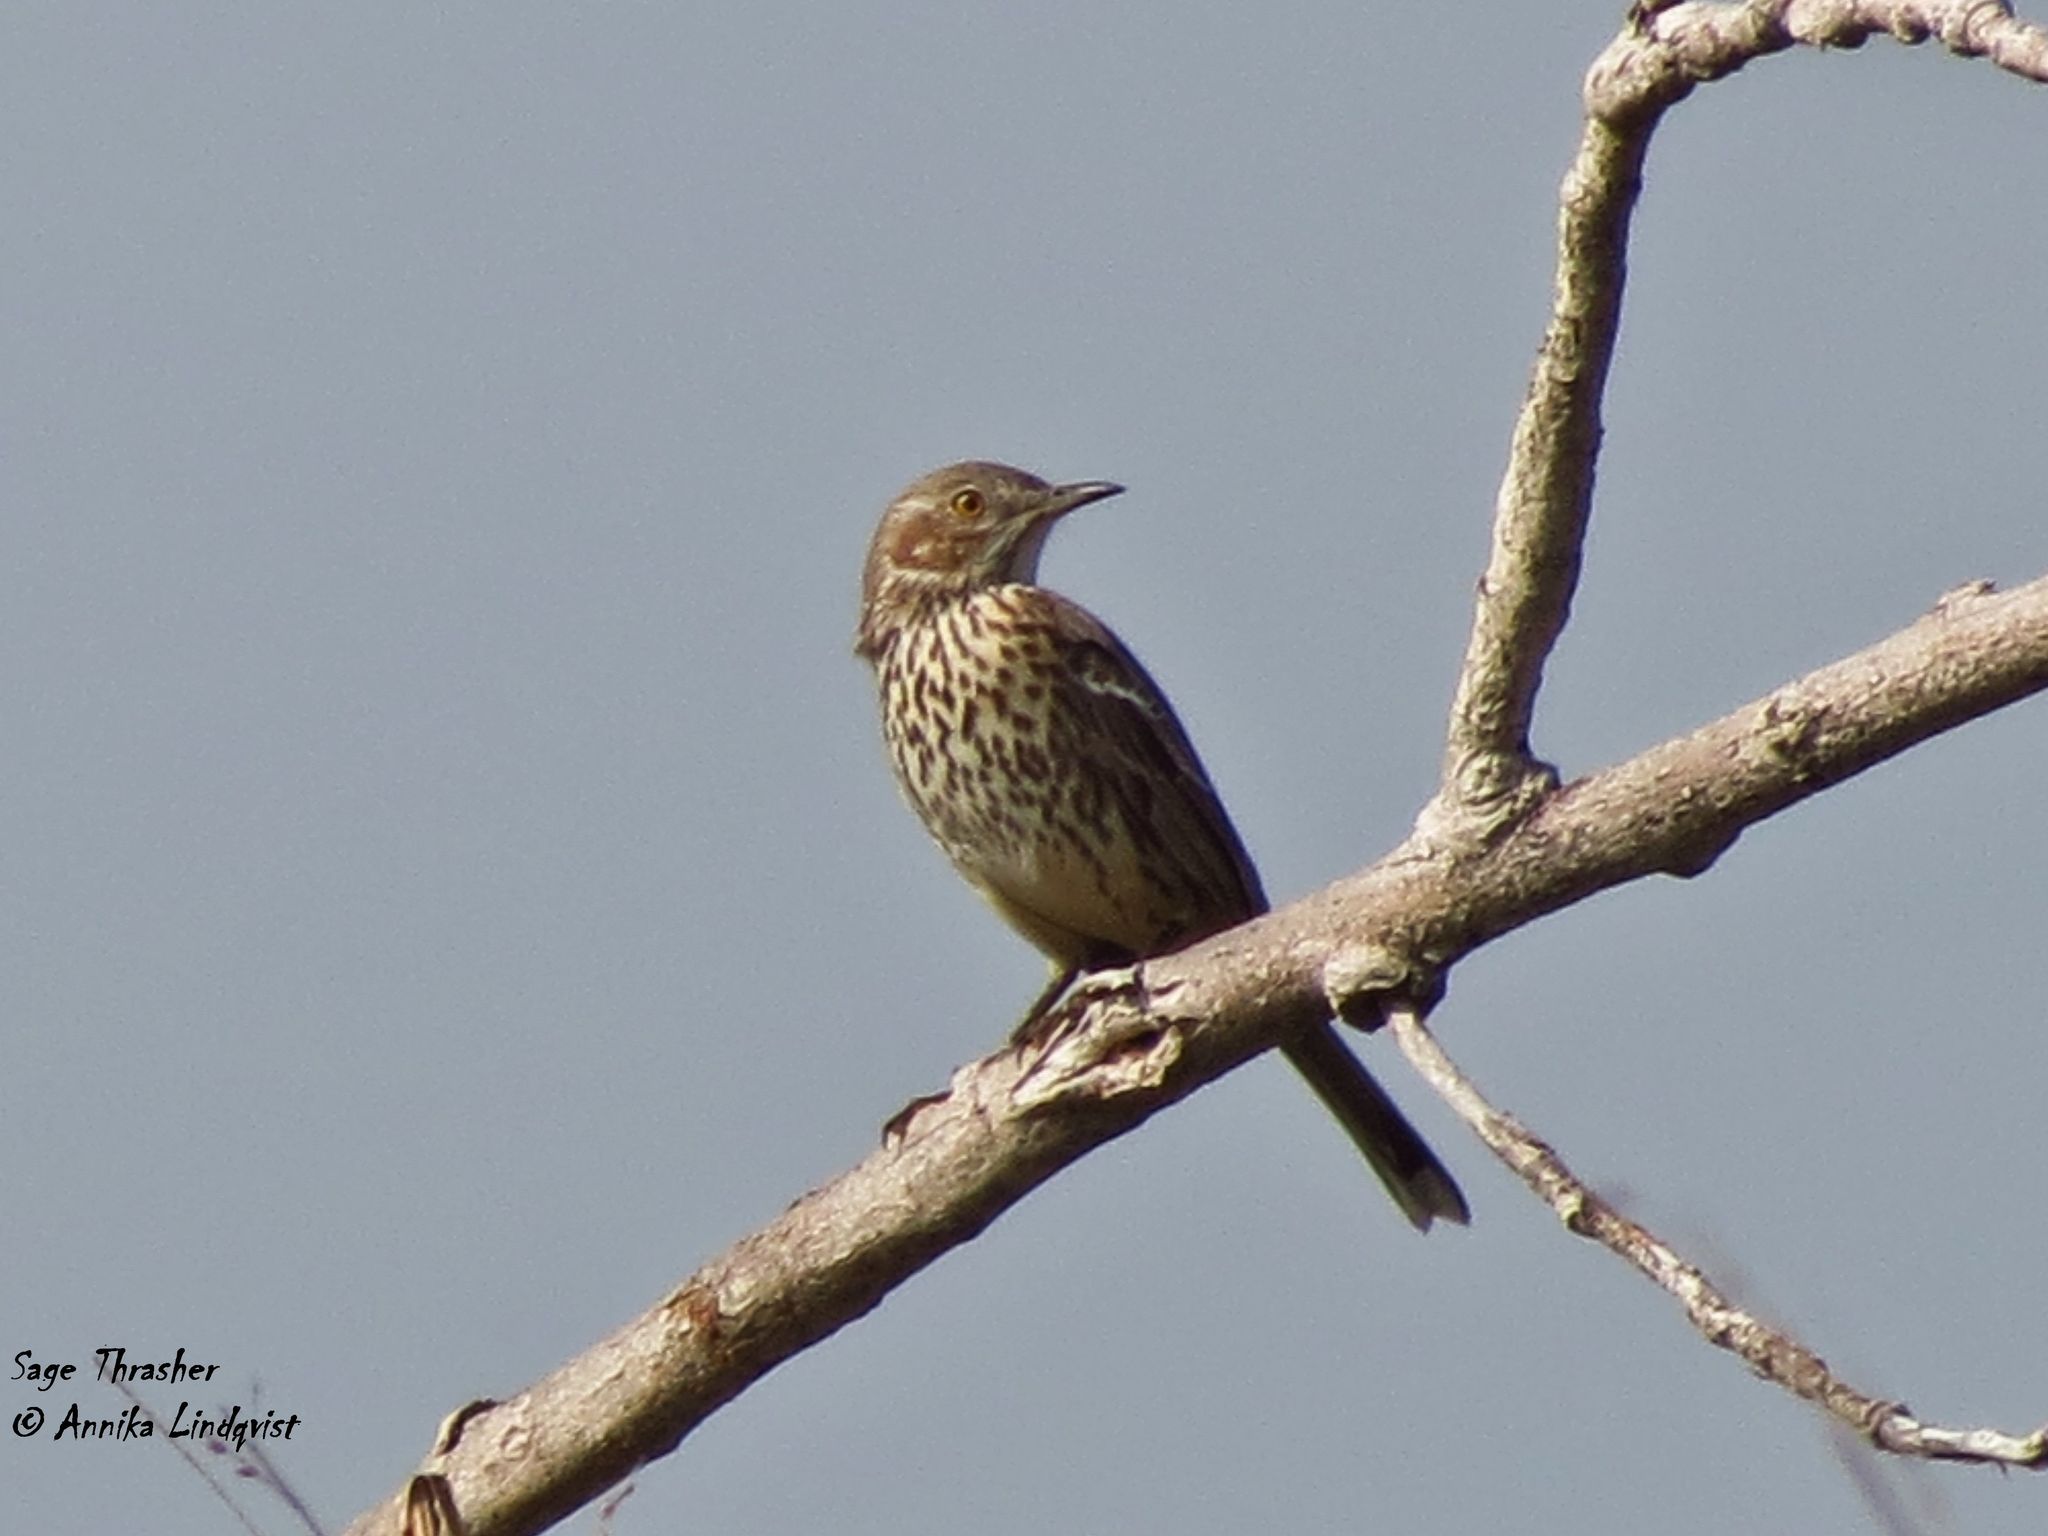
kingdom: Animalia
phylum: Chordata
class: Aves
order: Passeriformes
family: Mimidae
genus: Oreoscoptes
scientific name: Oreoscoptes montanus
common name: Sage thrasher
